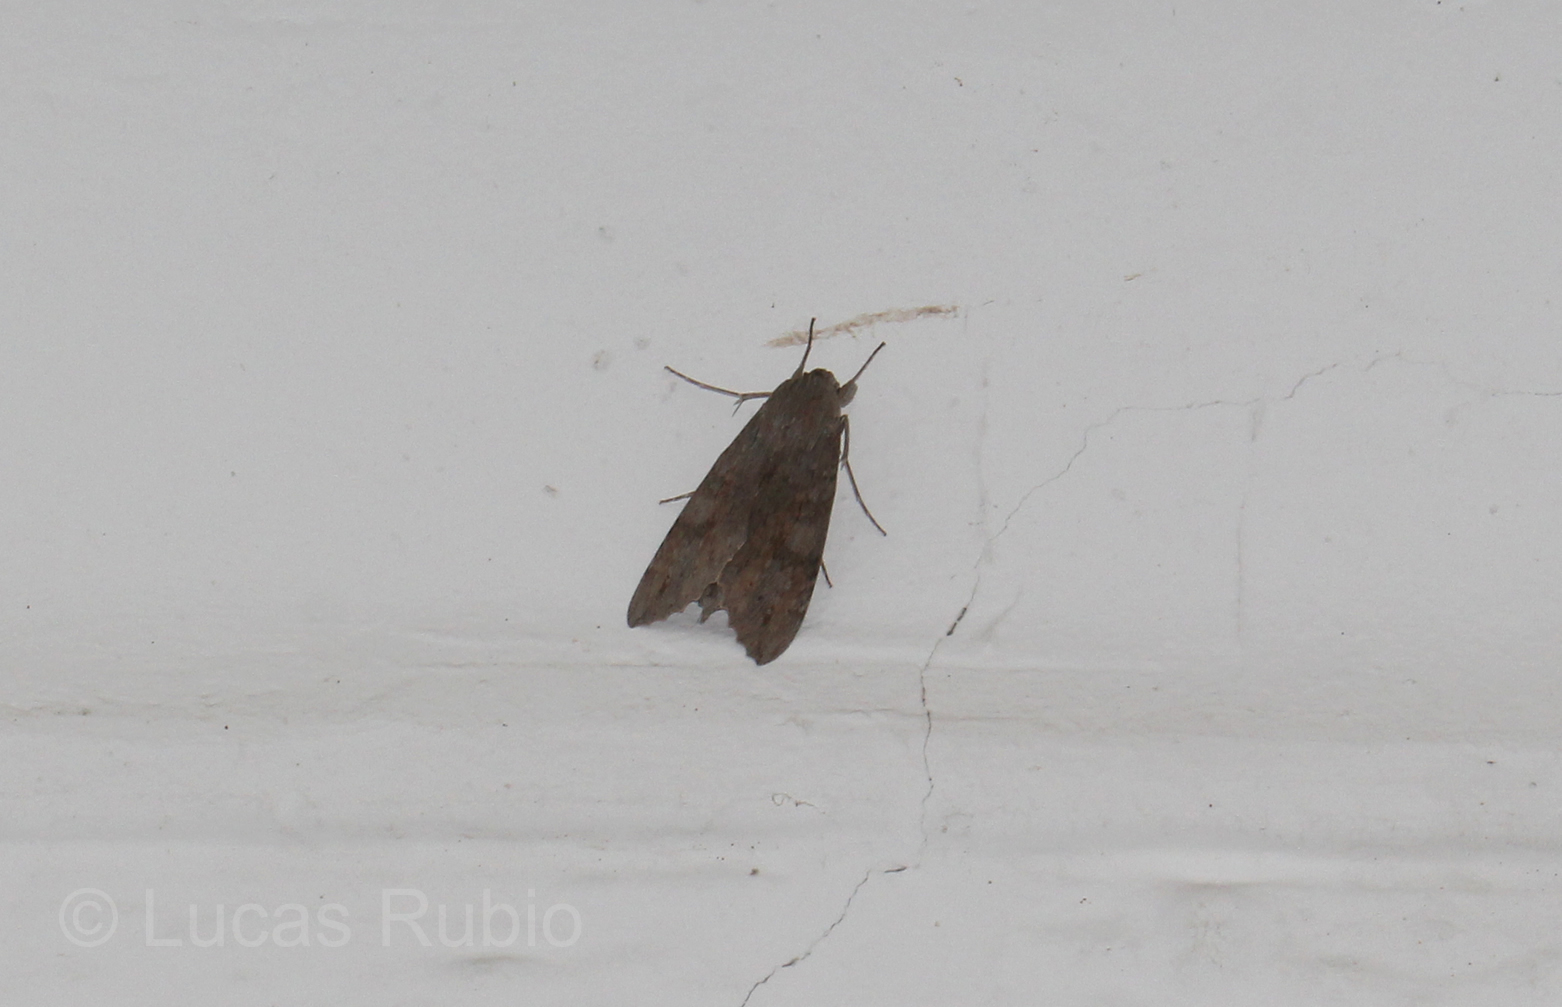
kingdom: Animalia
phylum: Arthropoda
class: Insecta
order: Lepidoptera
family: Sphingidae
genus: Erinnyis
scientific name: Erinnyis ello
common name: Ello sphinx
